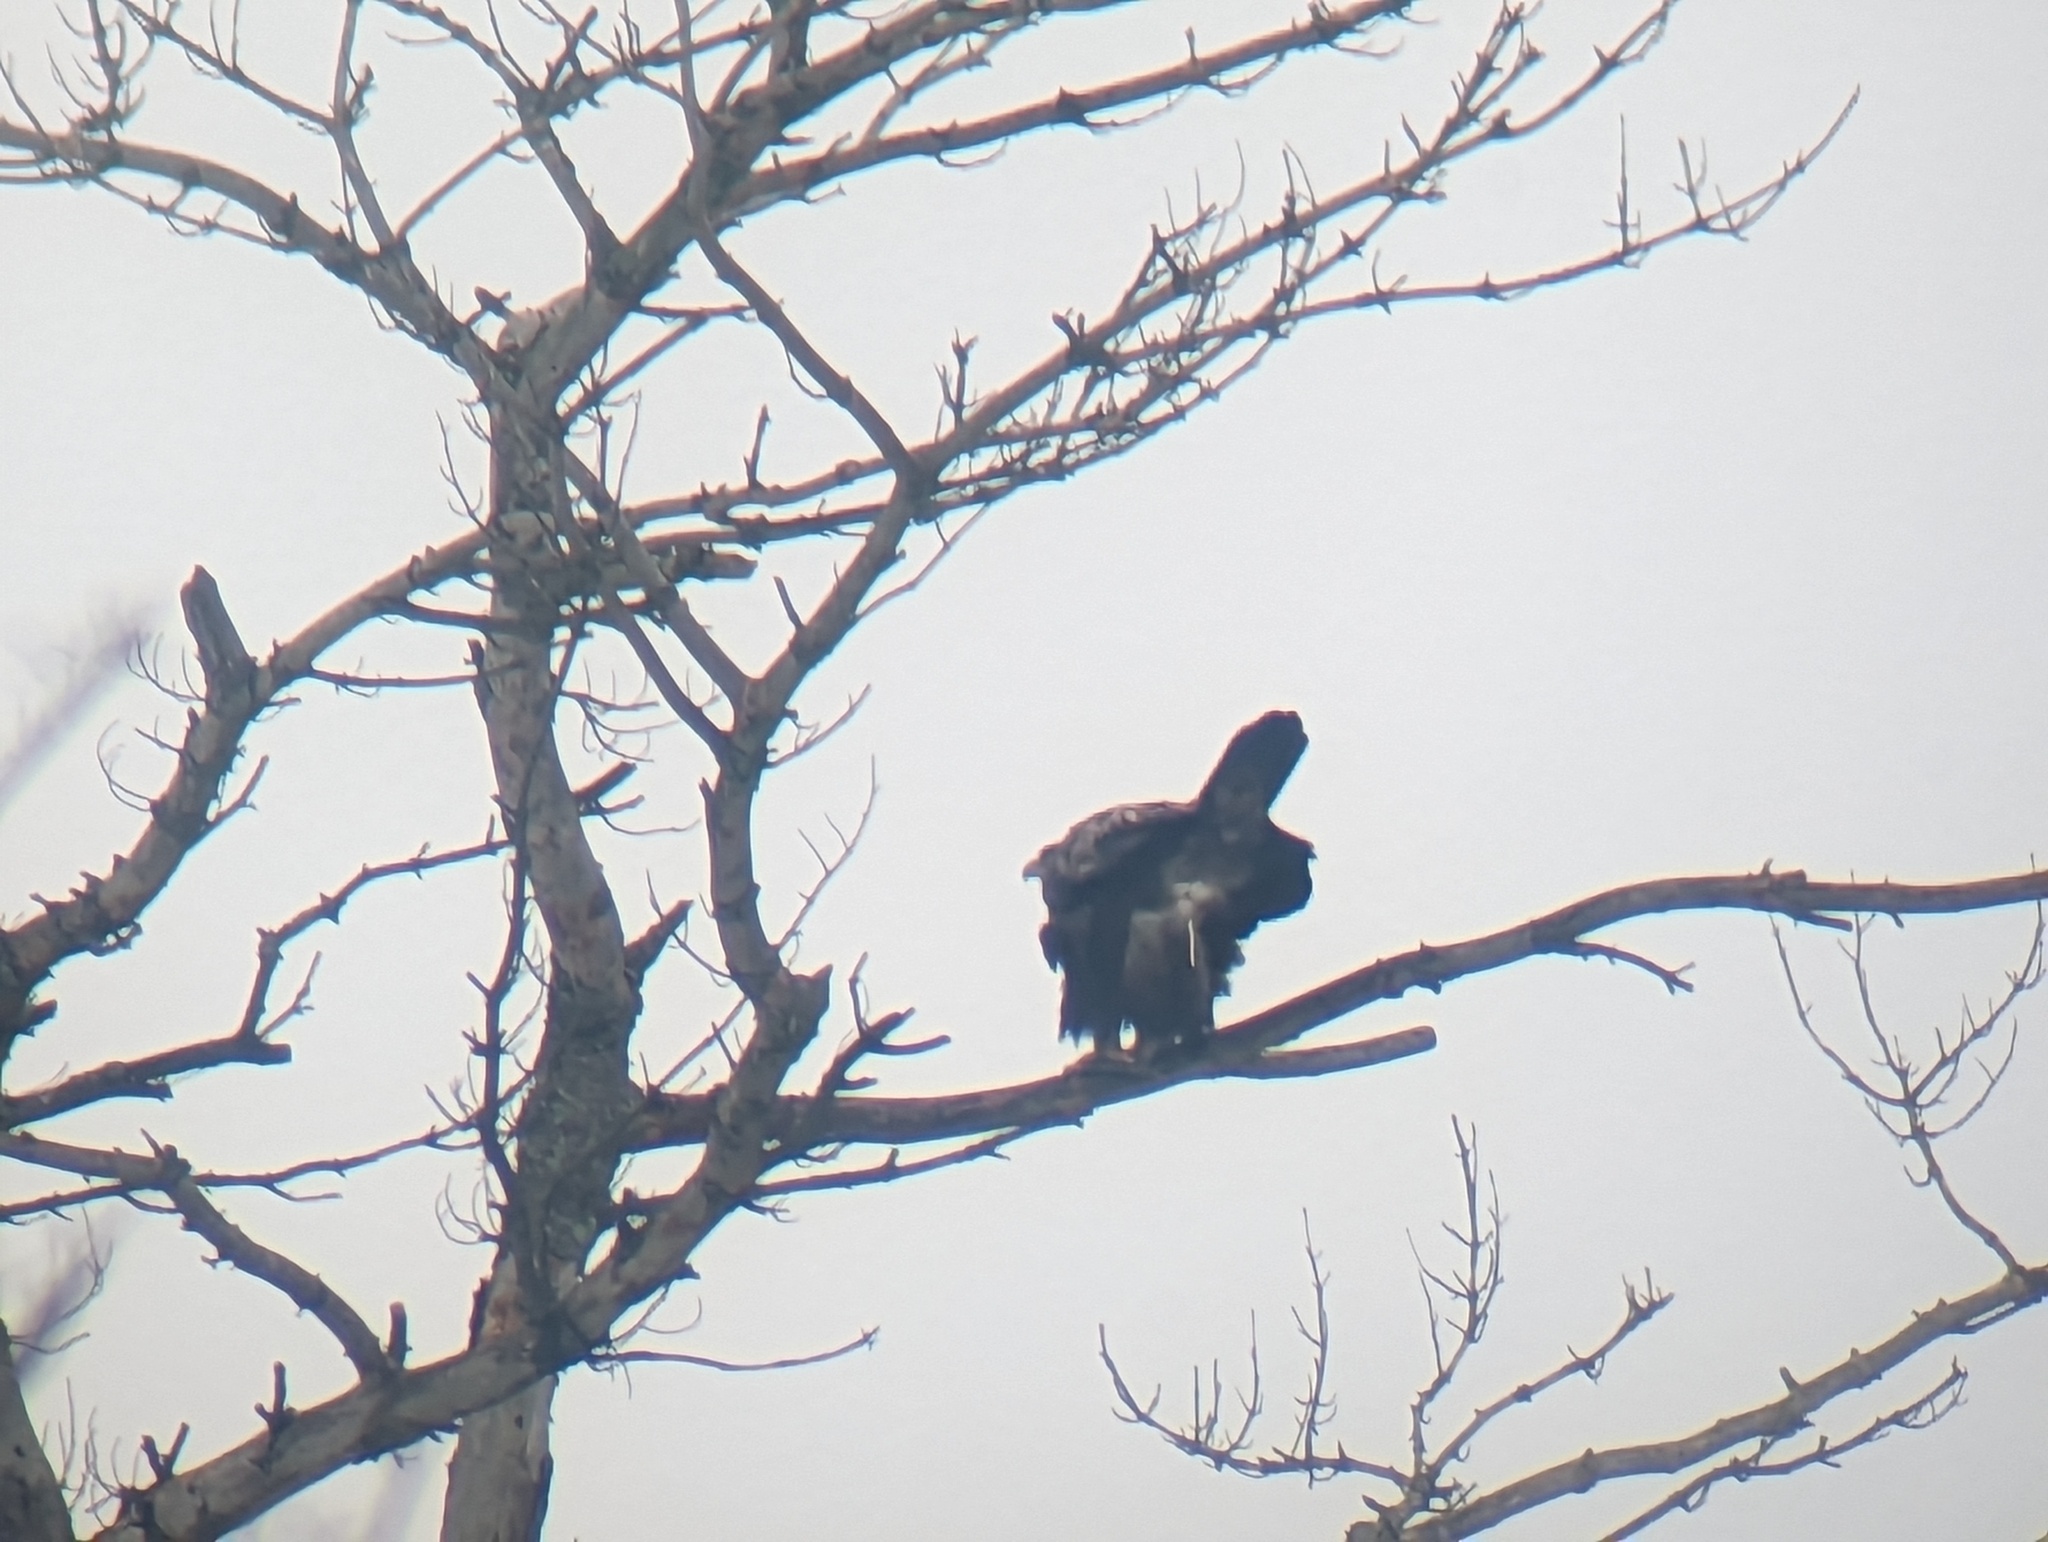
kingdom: Animalia
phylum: Chordata
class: Aves
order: Accipitriformes
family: Accipitridae
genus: Aquila
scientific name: Aquila chrysaetos
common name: Golden eagle
